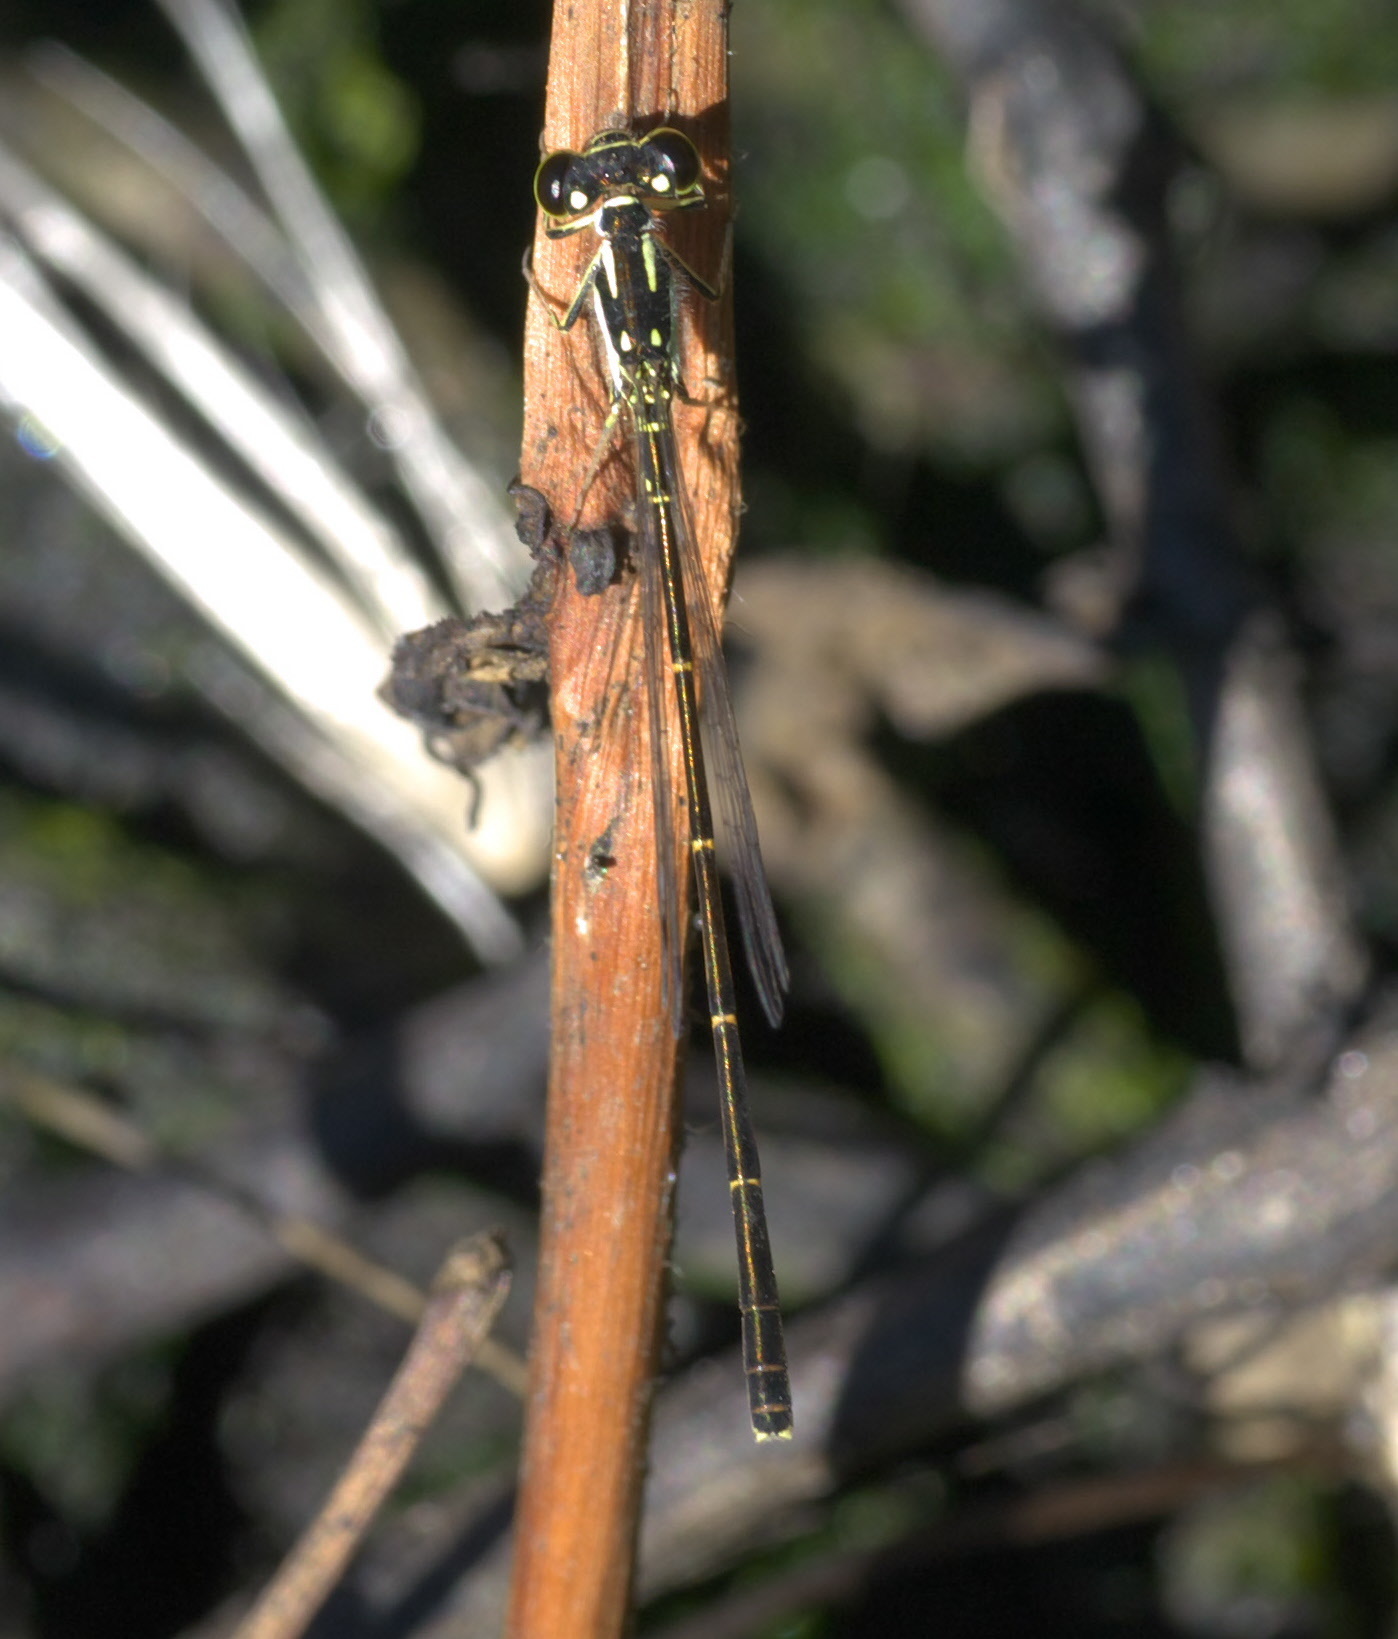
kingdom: Animalia
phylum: Arthropoda
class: Insecta
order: Odonata
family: Coenagrionidae
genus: Ischnura
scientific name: Ischnura posita
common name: Fragile forktail
